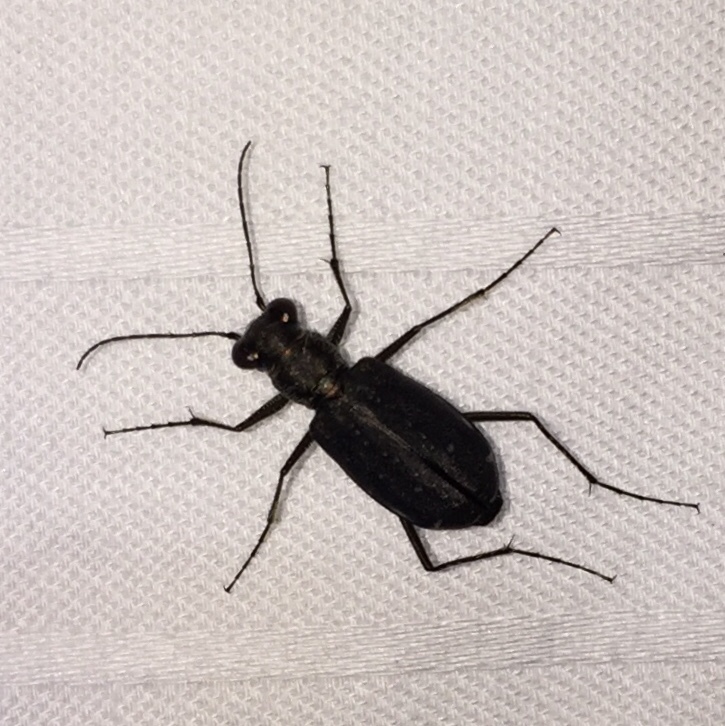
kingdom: Animalia
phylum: Arthropoda
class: Insecta
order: Coleoptera
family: Carabidae
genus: Cicindela
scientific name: Cicindela punctulata
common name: Punctured tiger beetle
